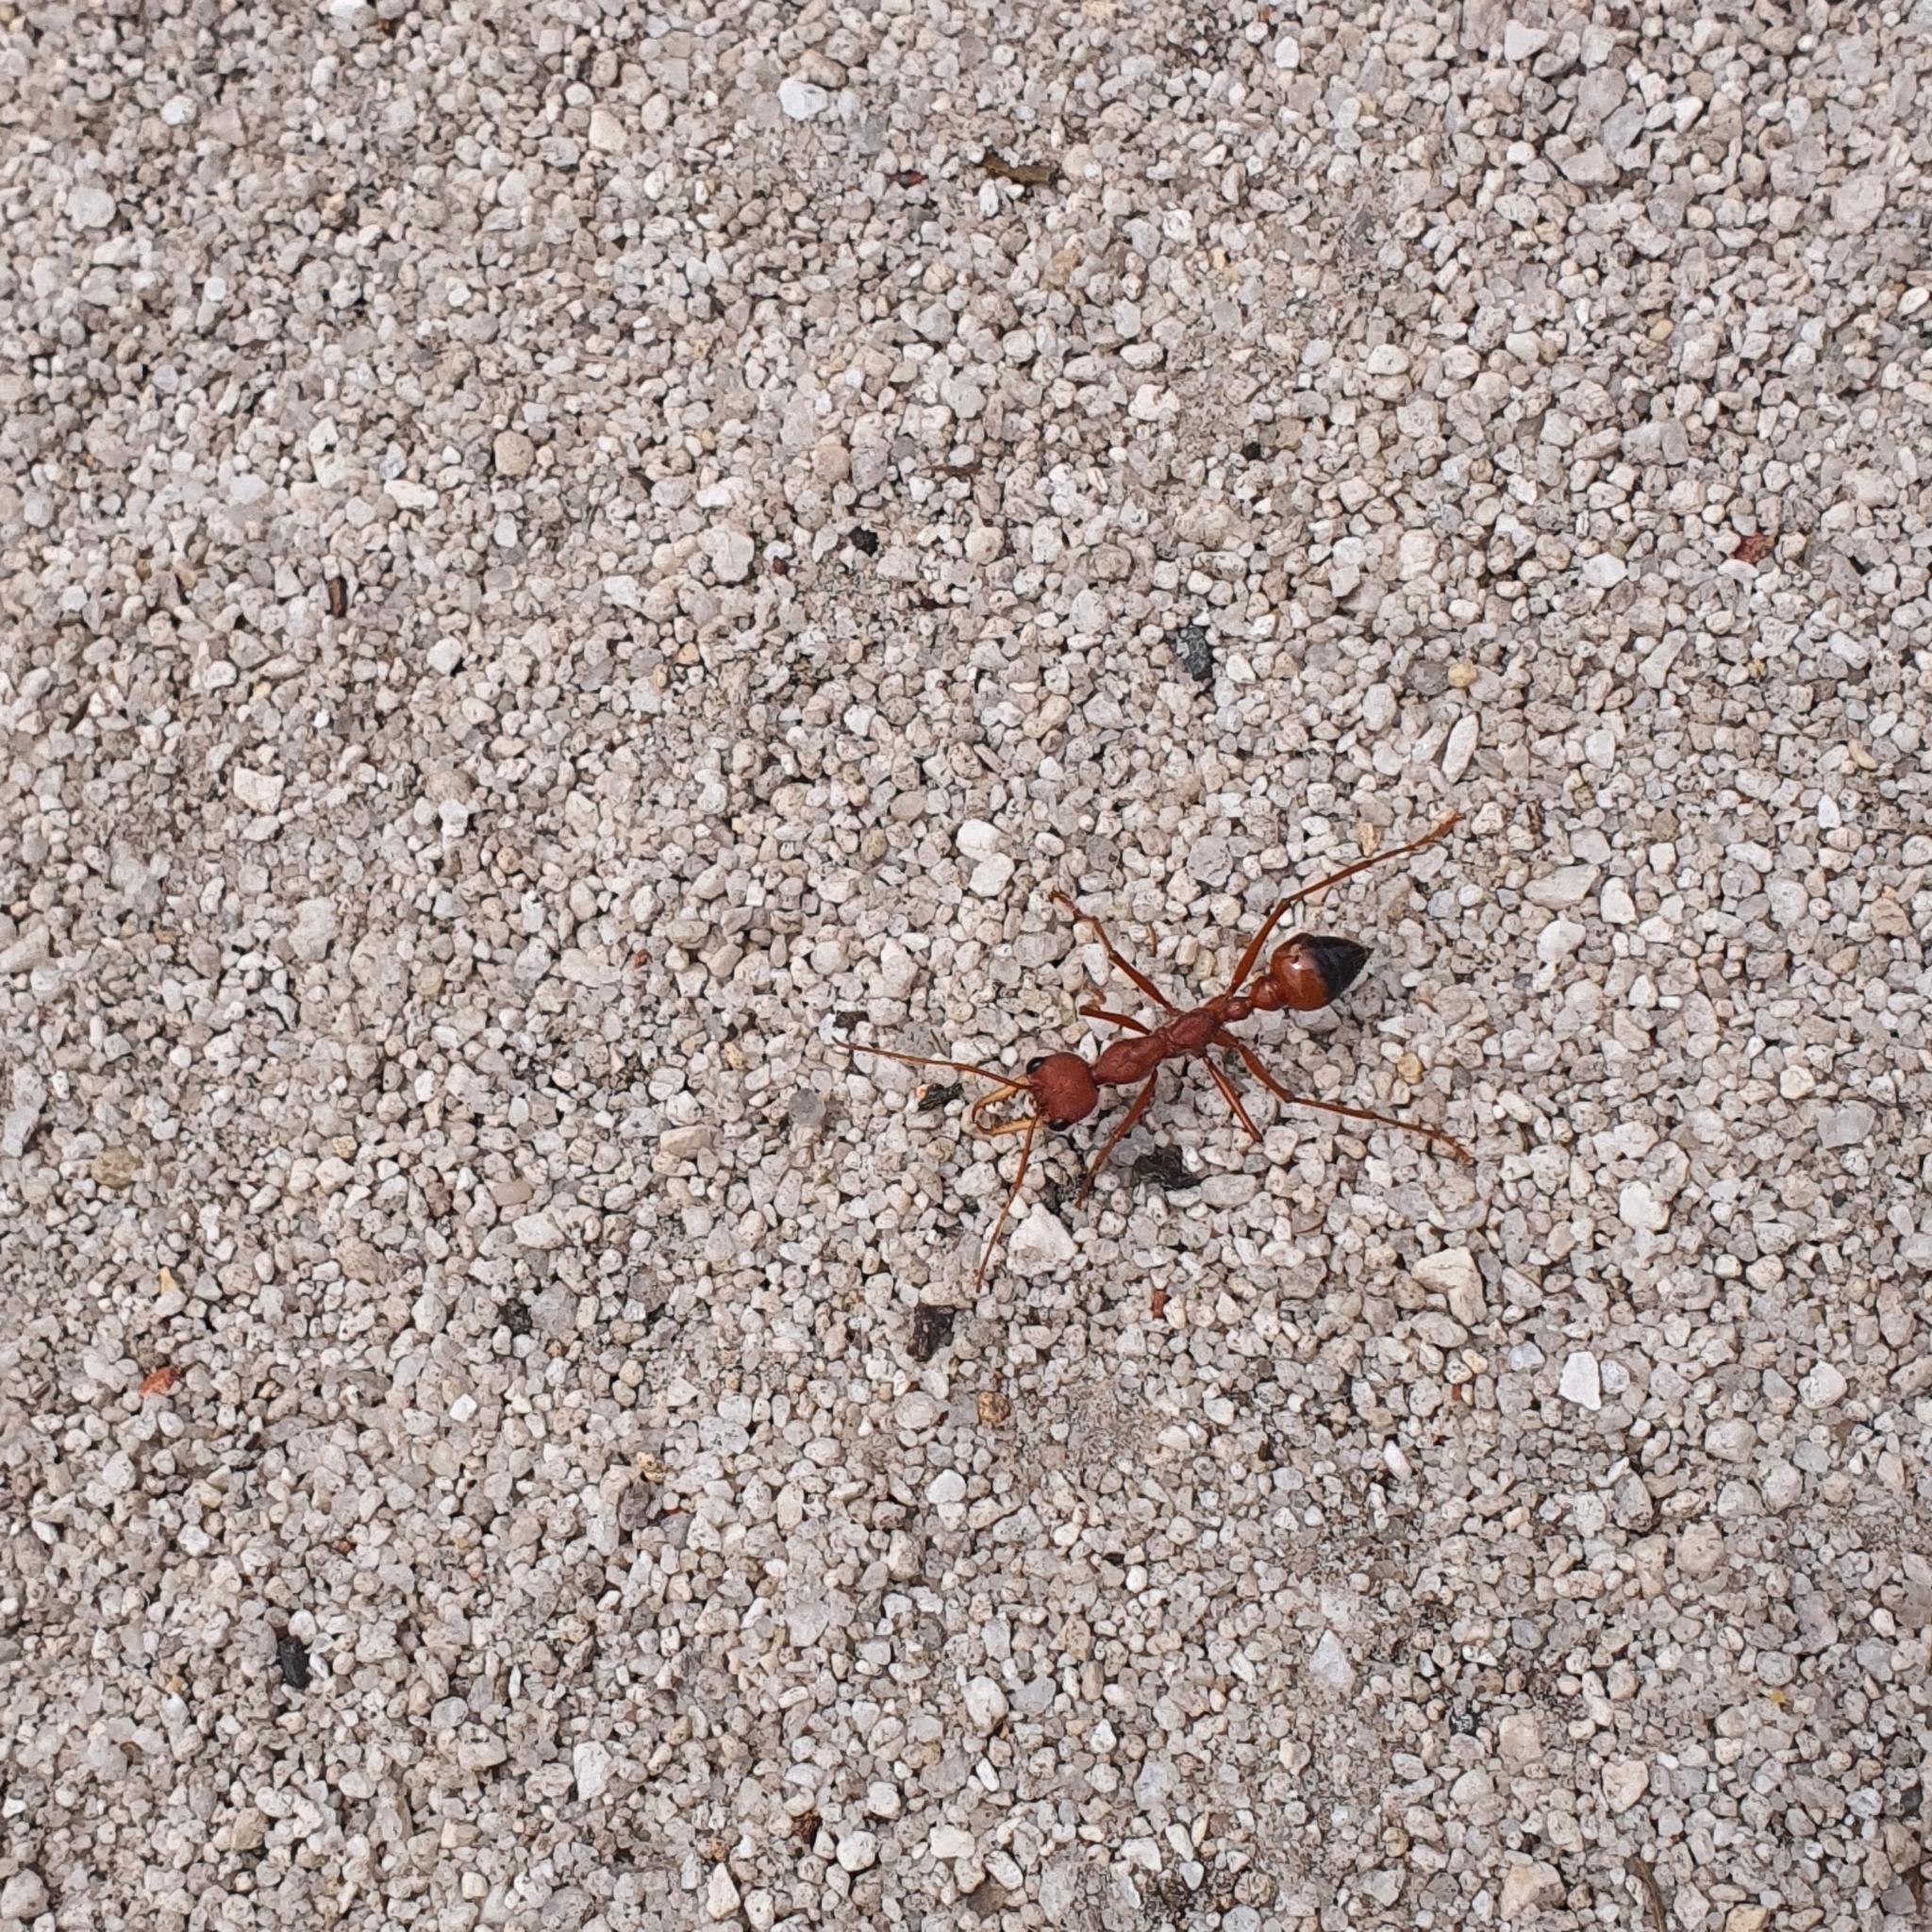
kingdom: Animalia
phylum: Arthropoda
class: Insecta
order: Hymenoptera
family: Formicidae
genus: Myrmecia
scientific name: Myrmecia gulosa
